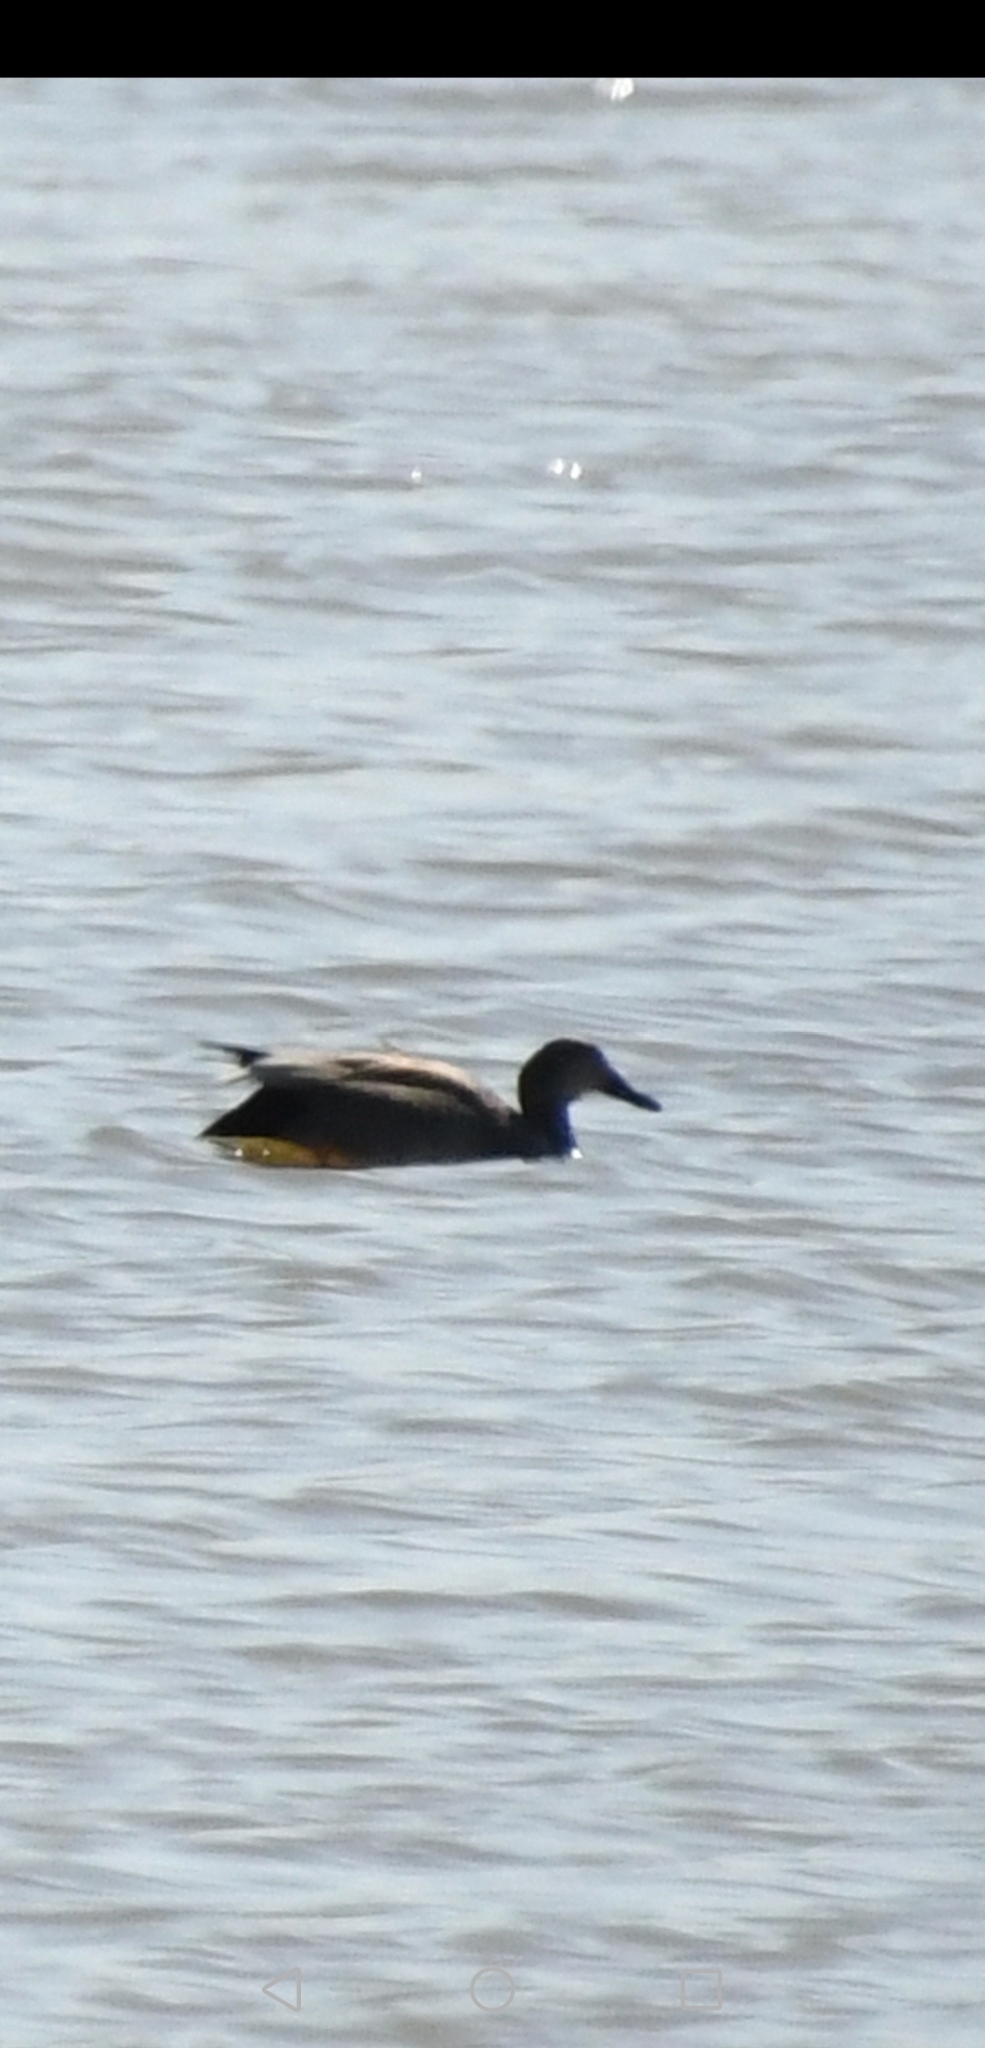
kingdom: Animalia
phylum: Chordata
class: Aves
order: Anseriformes
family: Anatidae
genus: Mareca
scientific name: Mareca strepera
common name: Gadwall
